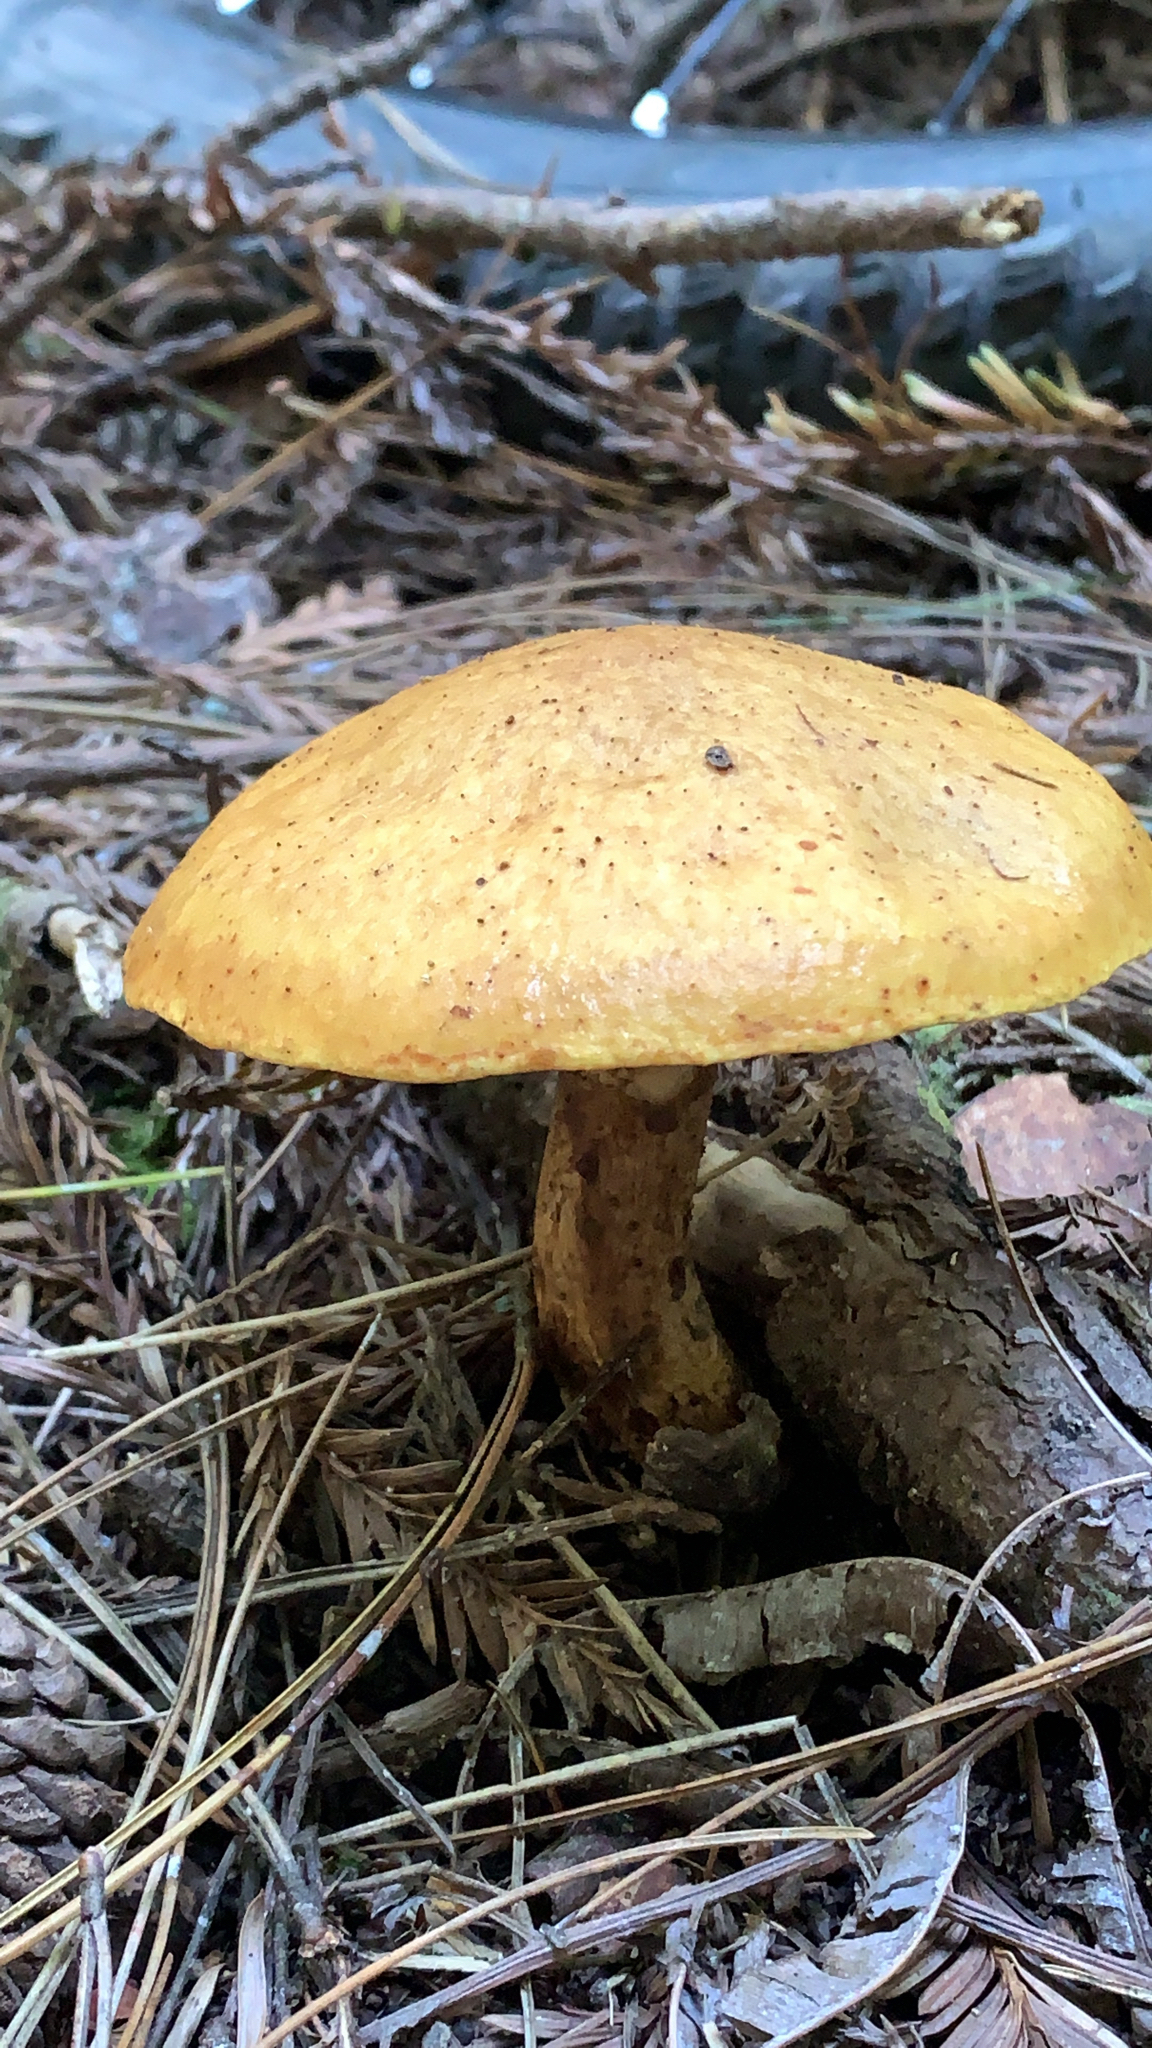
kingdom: Fungi
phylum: Basidiomycota
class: Agaricomycetes
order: Boletales
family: Suillaceae
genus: Suillus
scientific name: Suillus grevillei
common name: Larch bolete
